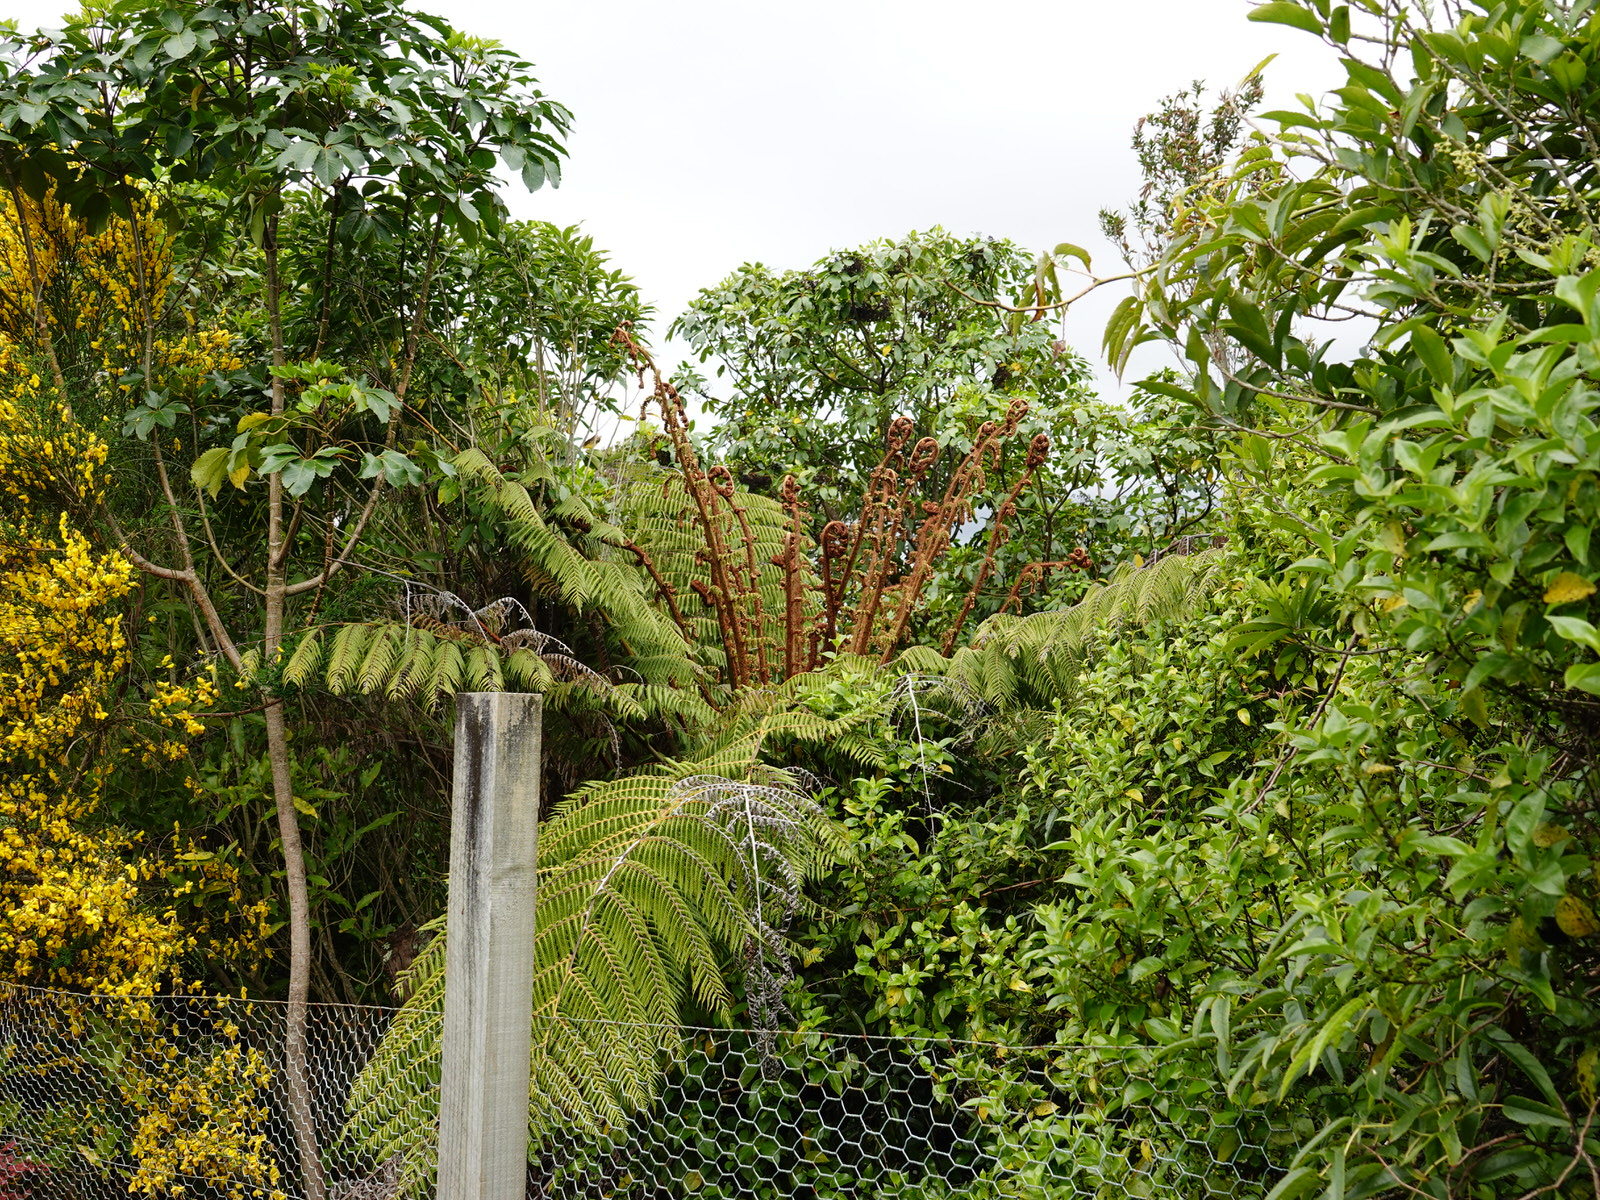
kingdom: Plantae
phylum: Tracheophyta
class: Polypodiopsida
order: Cyatheales
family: Cyatheaceae
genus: Alsophila
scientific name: Alsophila dealbata
